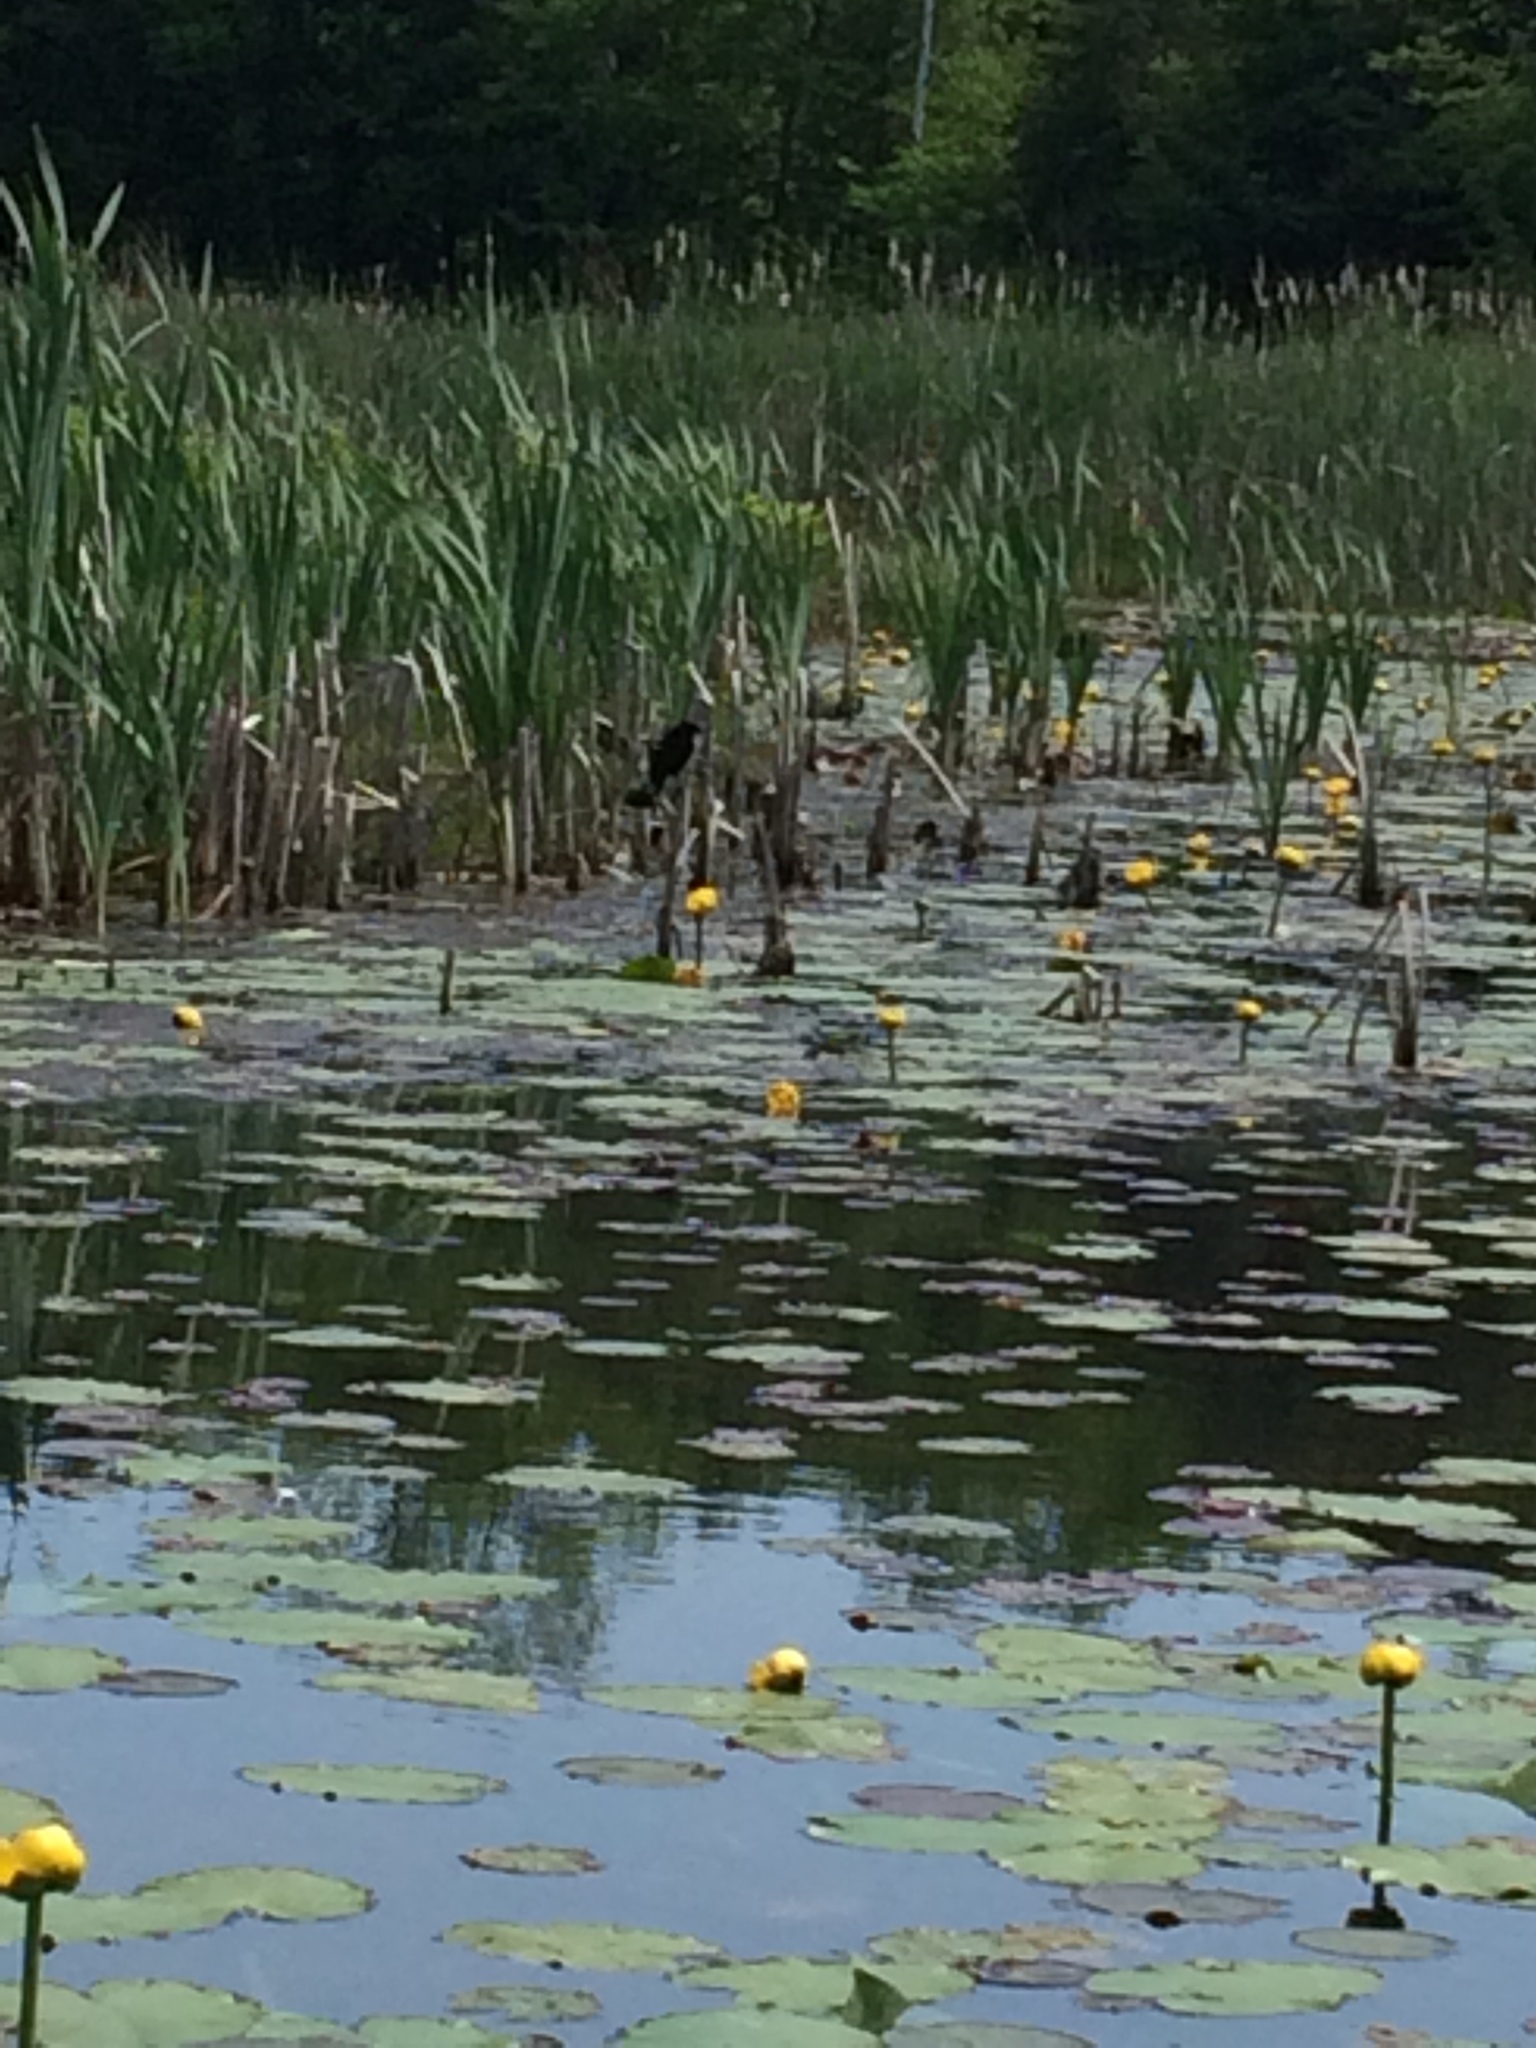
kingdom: Animalia
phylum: Chordata
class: Aves
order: Passeriformes
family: Icteridae
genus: Agelaius
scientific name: Agelaius phoeniceus
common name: Red-winged blackbird
